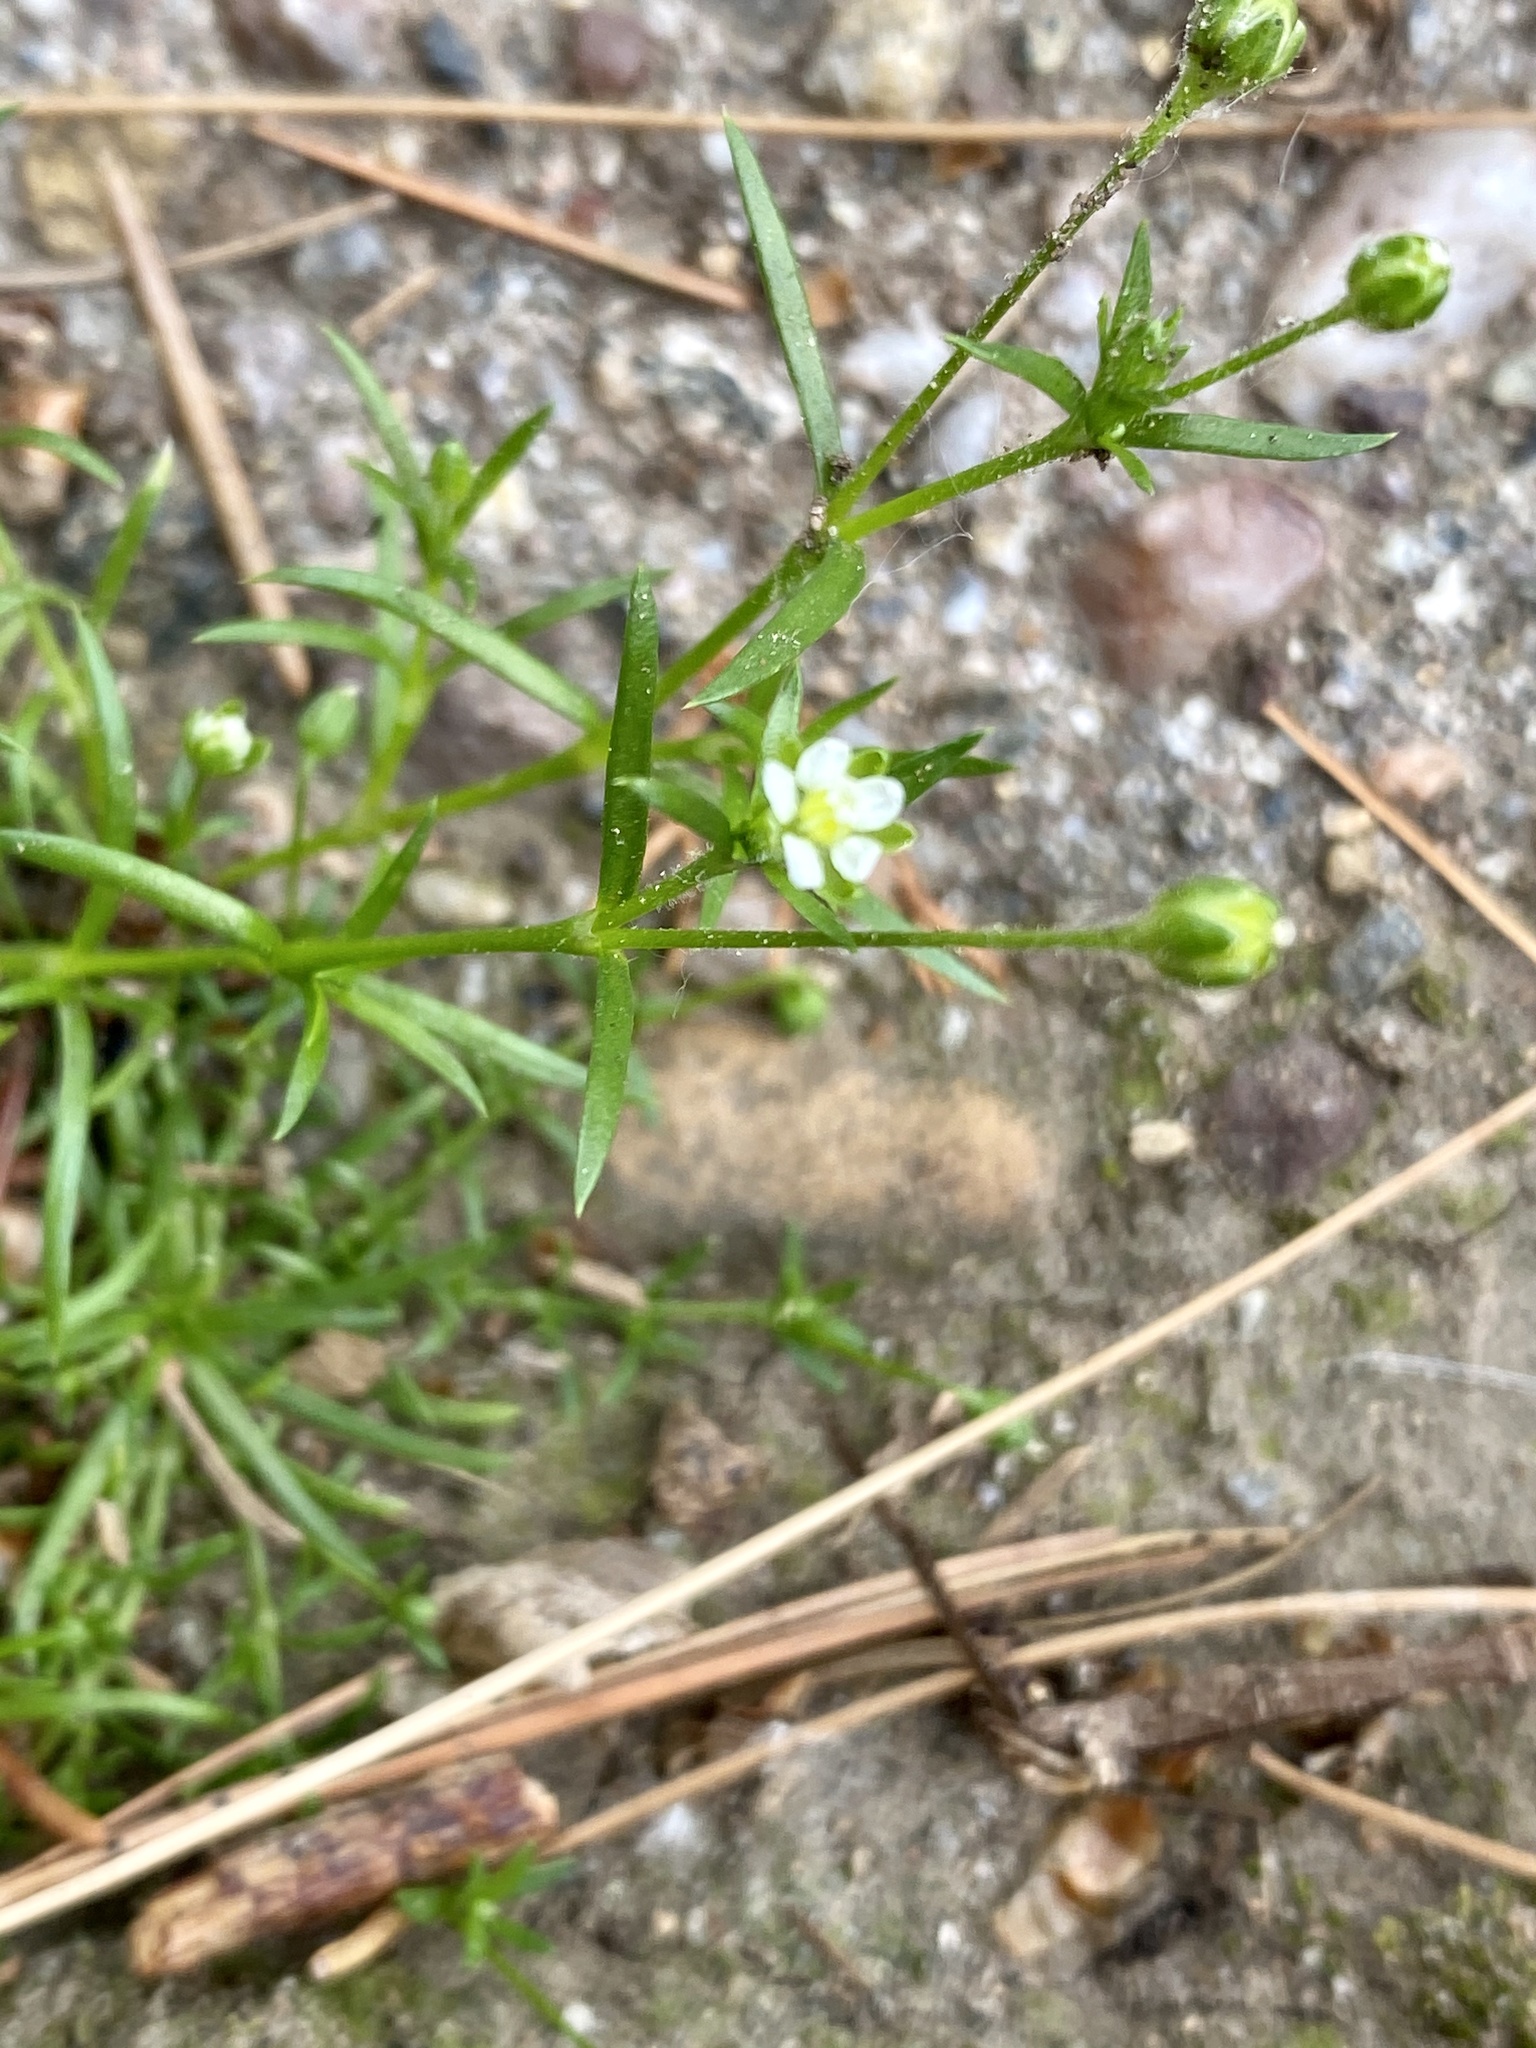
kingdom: Plantae
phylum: Tracheophyta
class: Magnoliopsida
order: Caryophyllales
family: Caryophyllaceae
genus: Sagina
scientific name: Sagina procumbens
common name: Procumbent pearlwort
